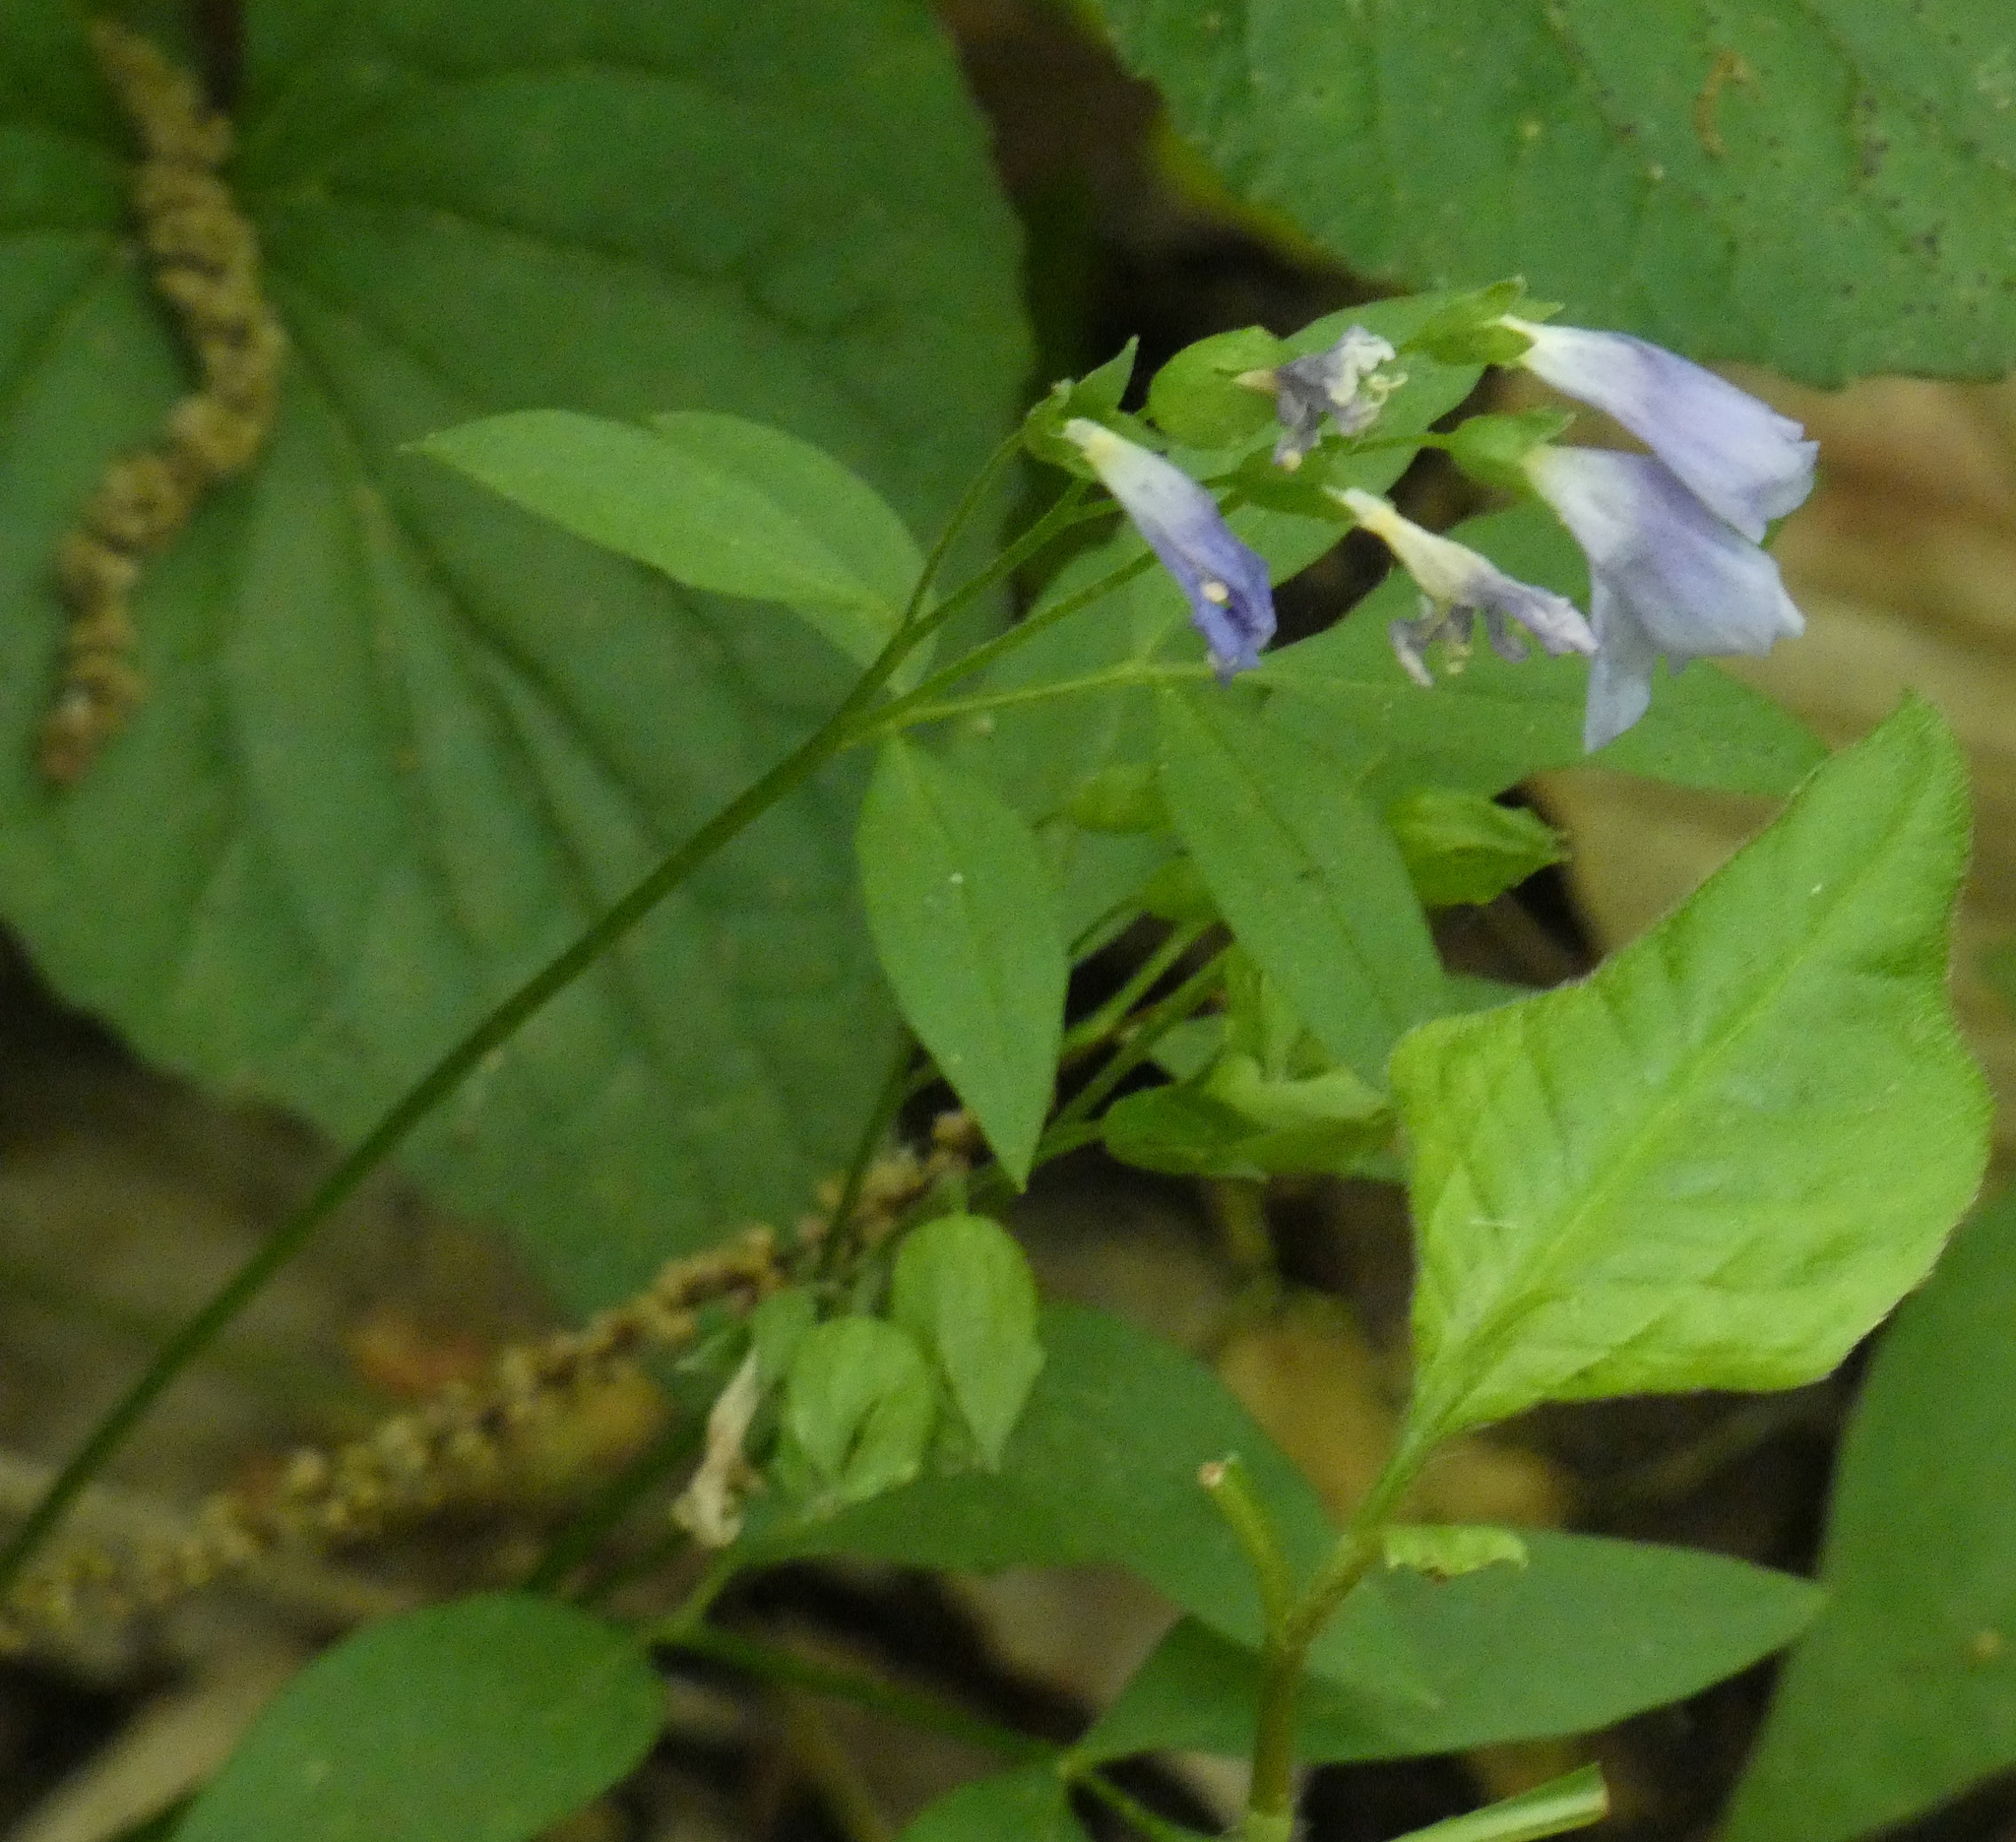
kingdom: Plantae
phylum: Tracheophyta
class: Magnoliopsida
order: Ericales
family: Polemoniaceae
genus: Polemonium
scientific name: Polemonium reptans
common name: Creeping jacob's-ladder
